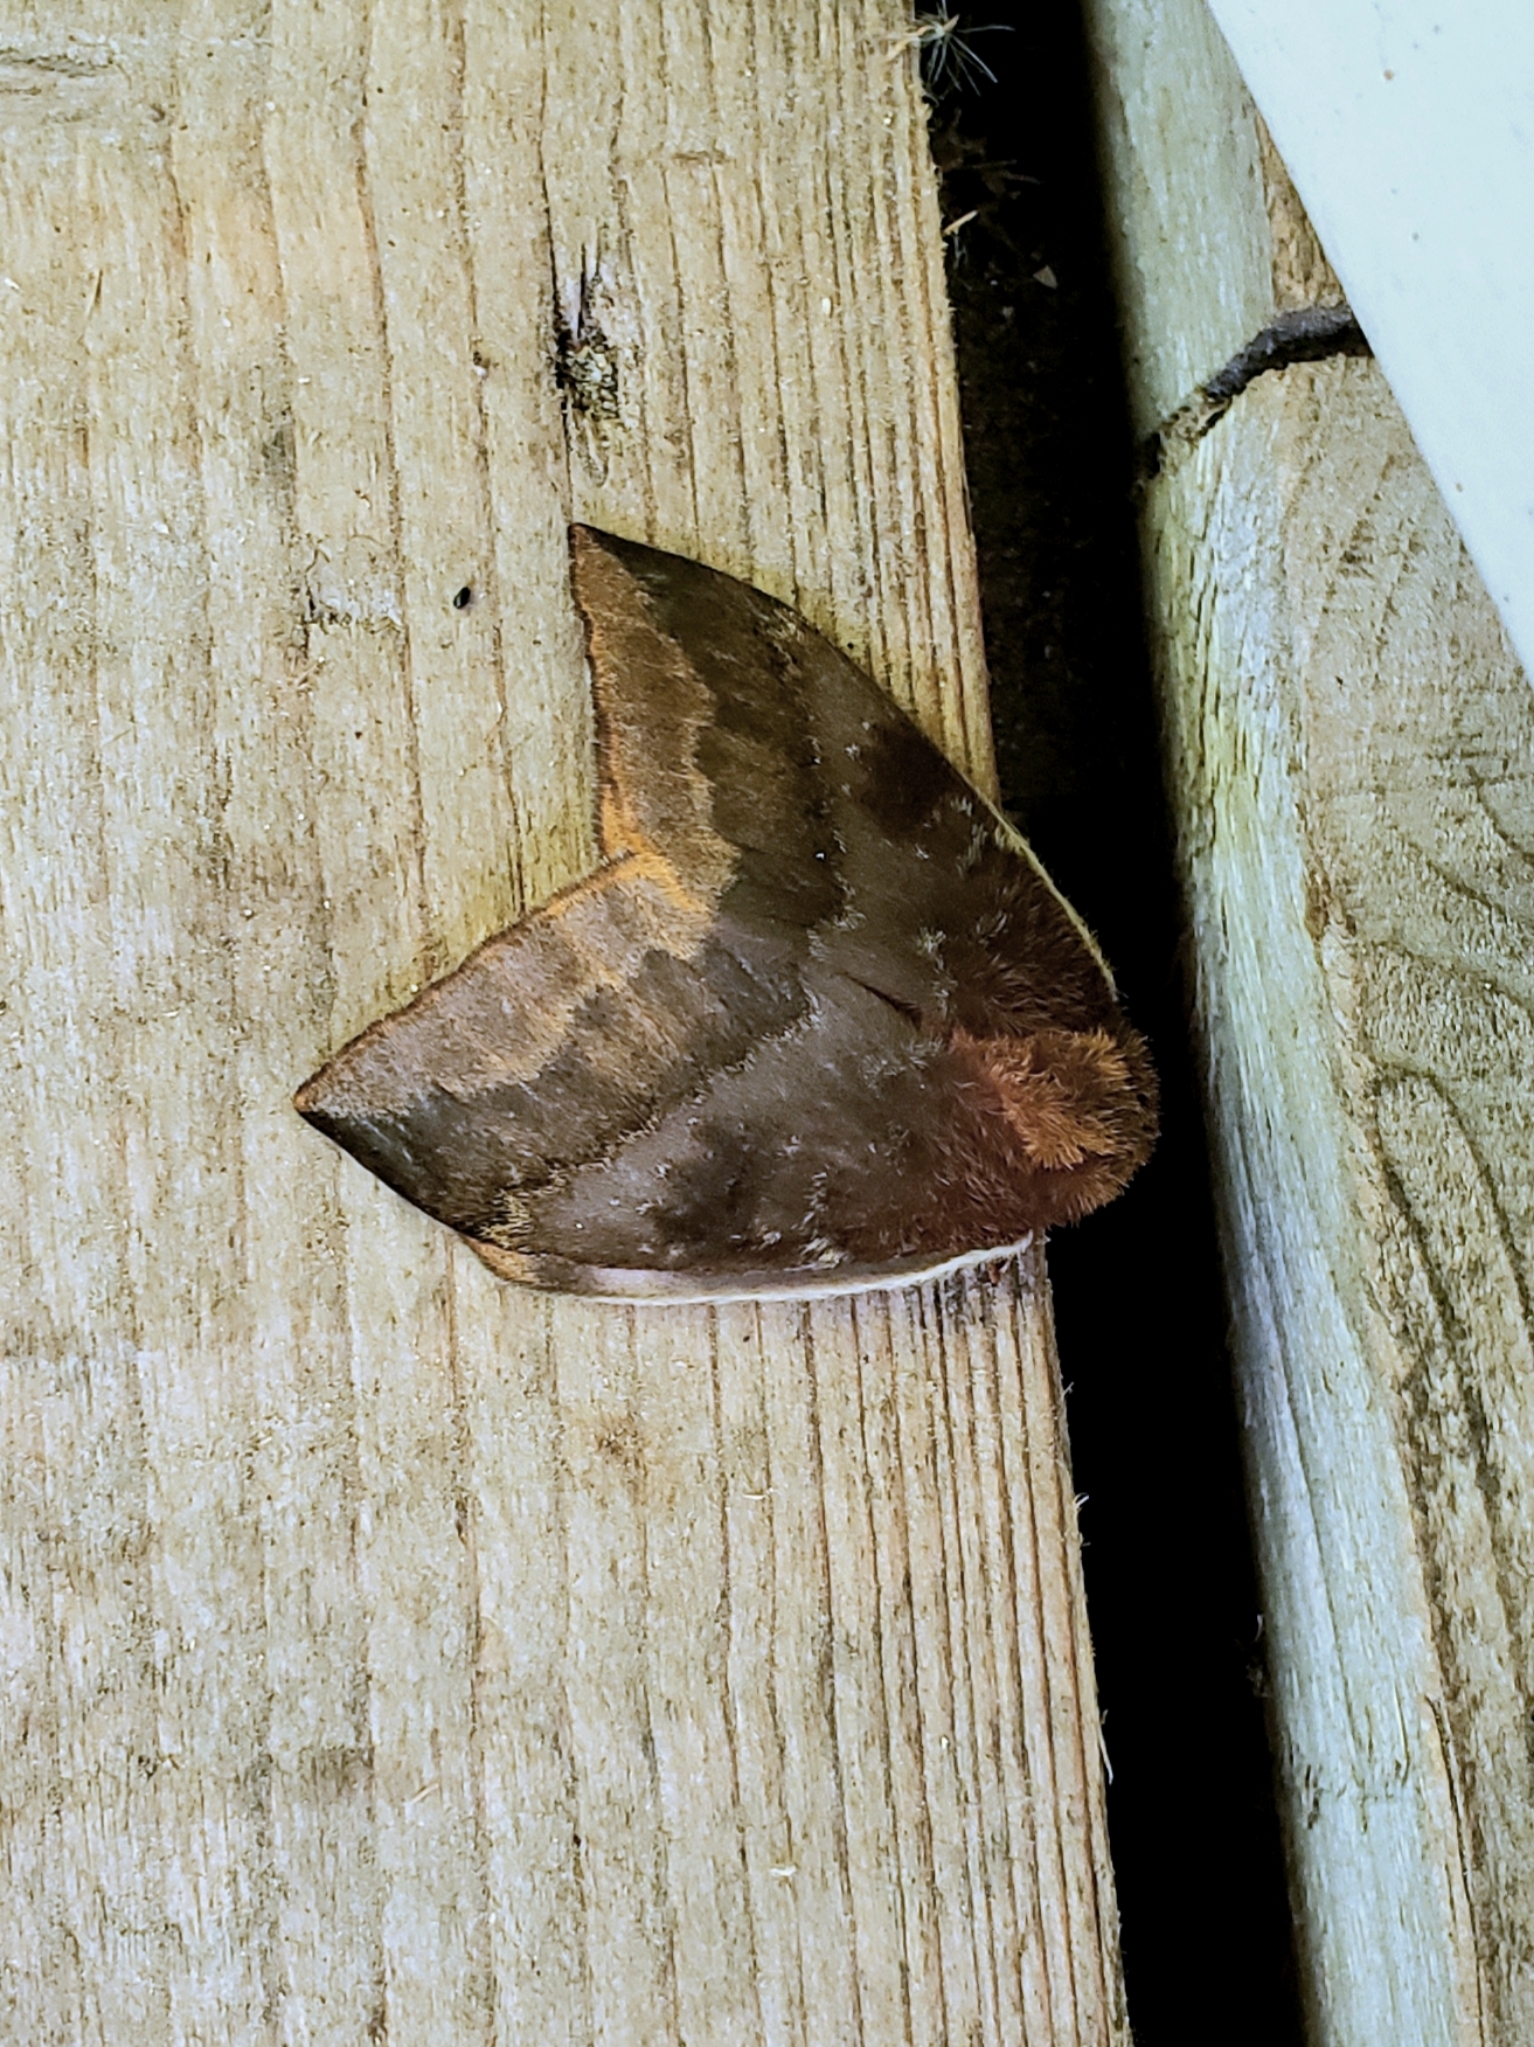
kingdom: Animalia
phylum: Arthropoda
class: Insecta
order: Lepidoptera
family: Saturniidae
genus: Automeris
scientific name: Automeris io
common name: Io moth
